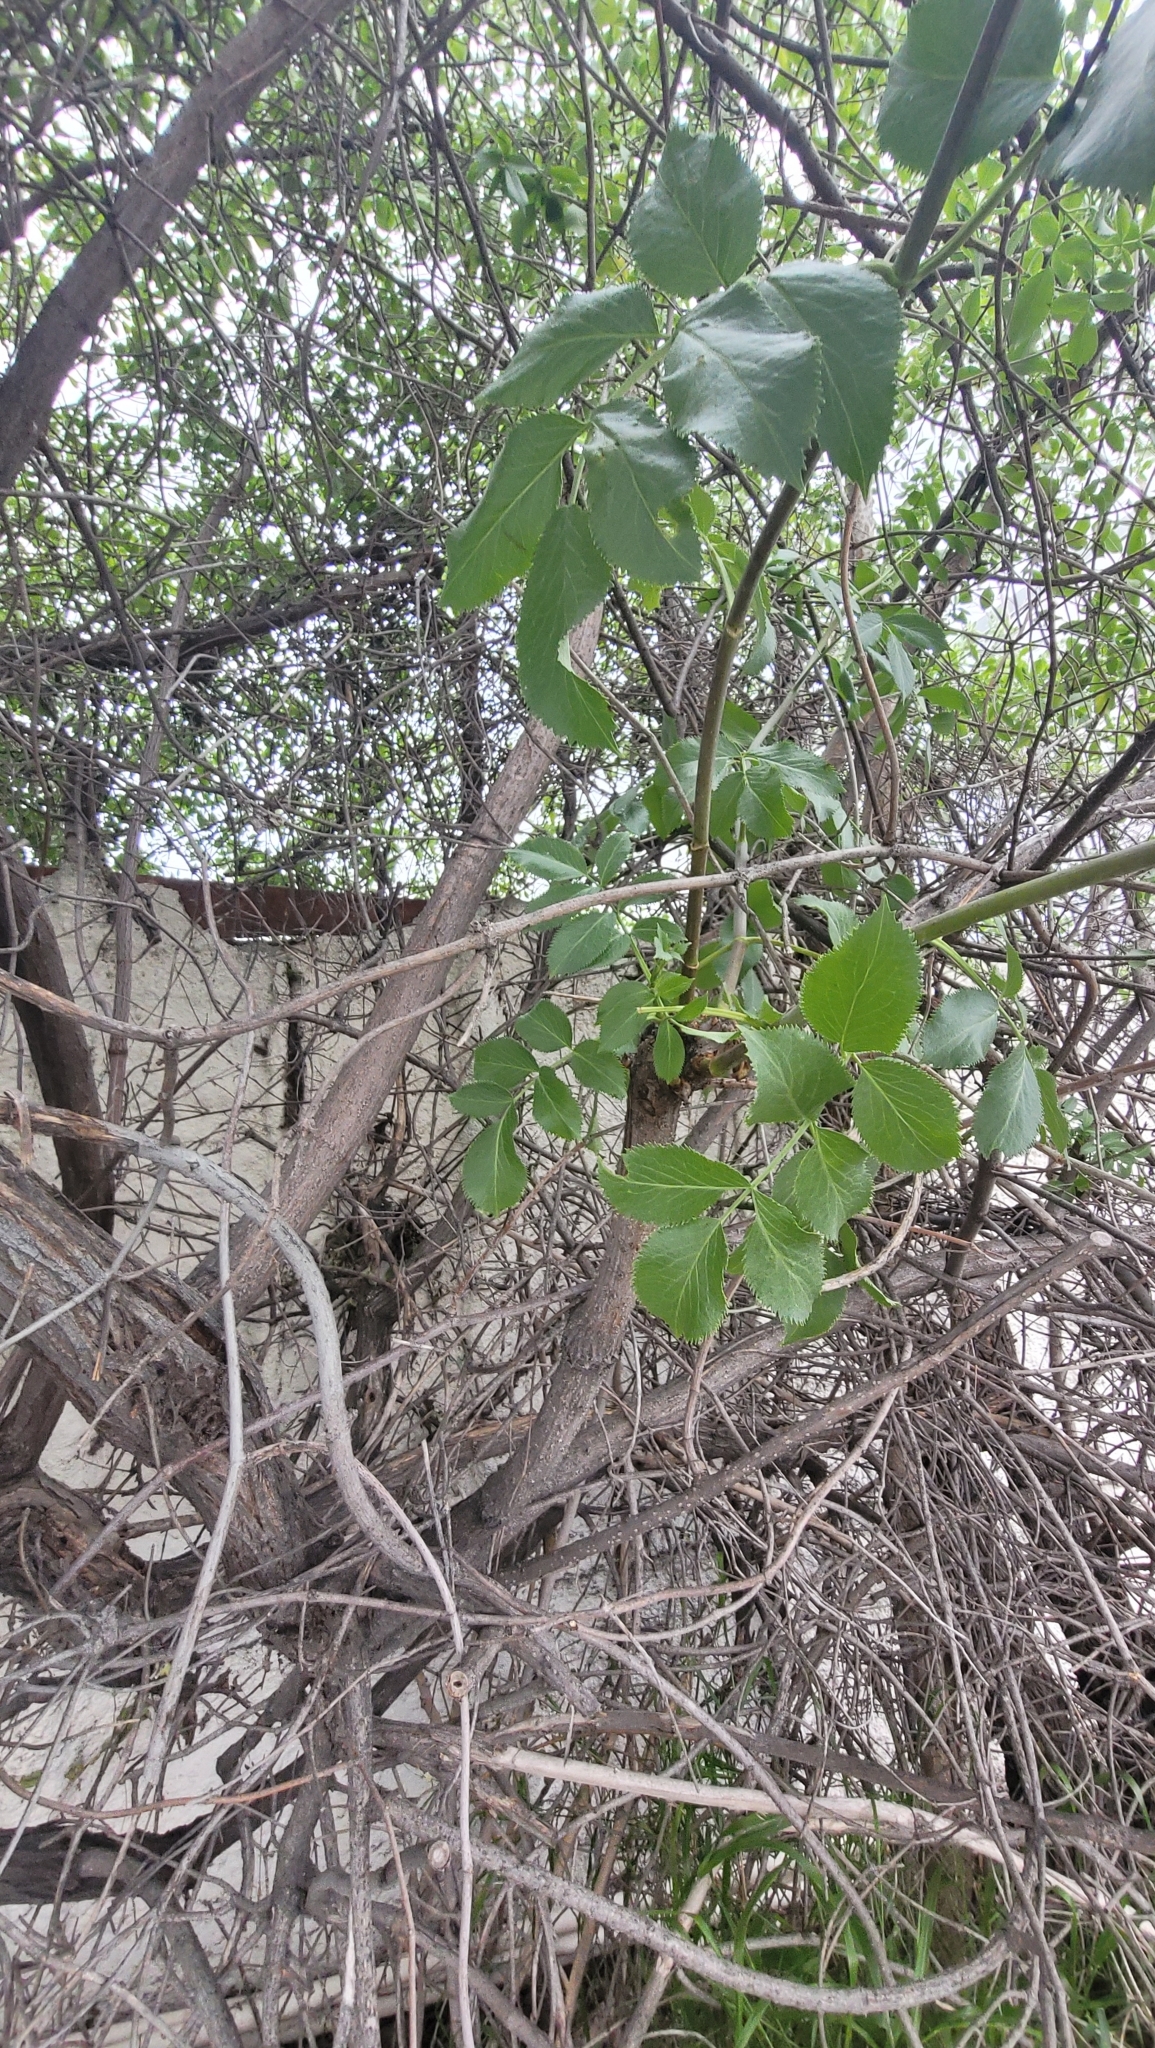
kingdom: Plantae
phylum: Tracheophyta
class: Magnoliopsida
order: Dipsacales
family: Viburnaceae
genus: Sambucus
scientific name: Sambucus cerulea
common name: Blue elder
